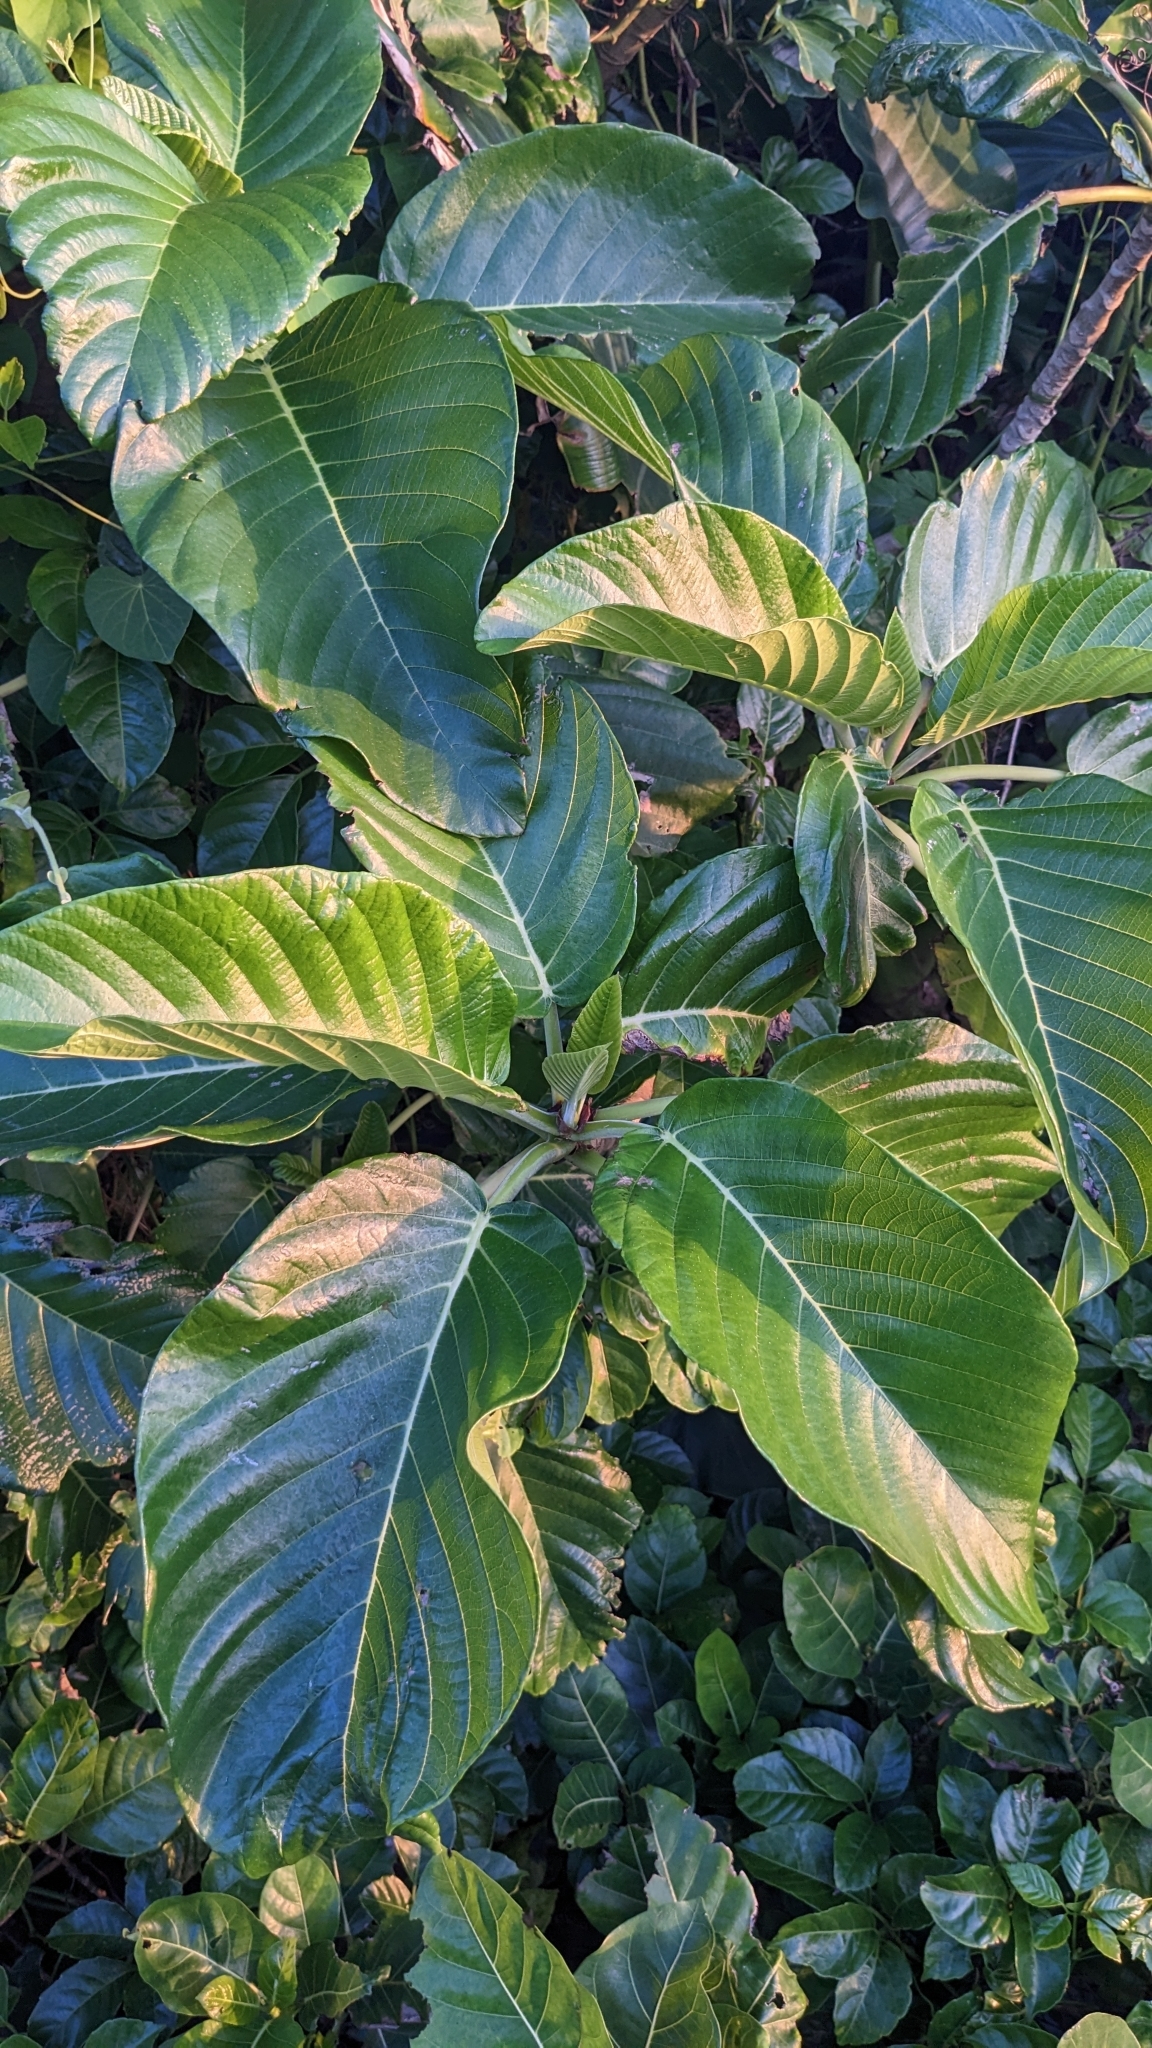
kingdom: Plantae
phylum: Tracheophyta
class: Magnoliopsida
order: Rosales
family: Urticaceae
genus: Dendrocnide
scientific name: Dendrocnide kotoensis
